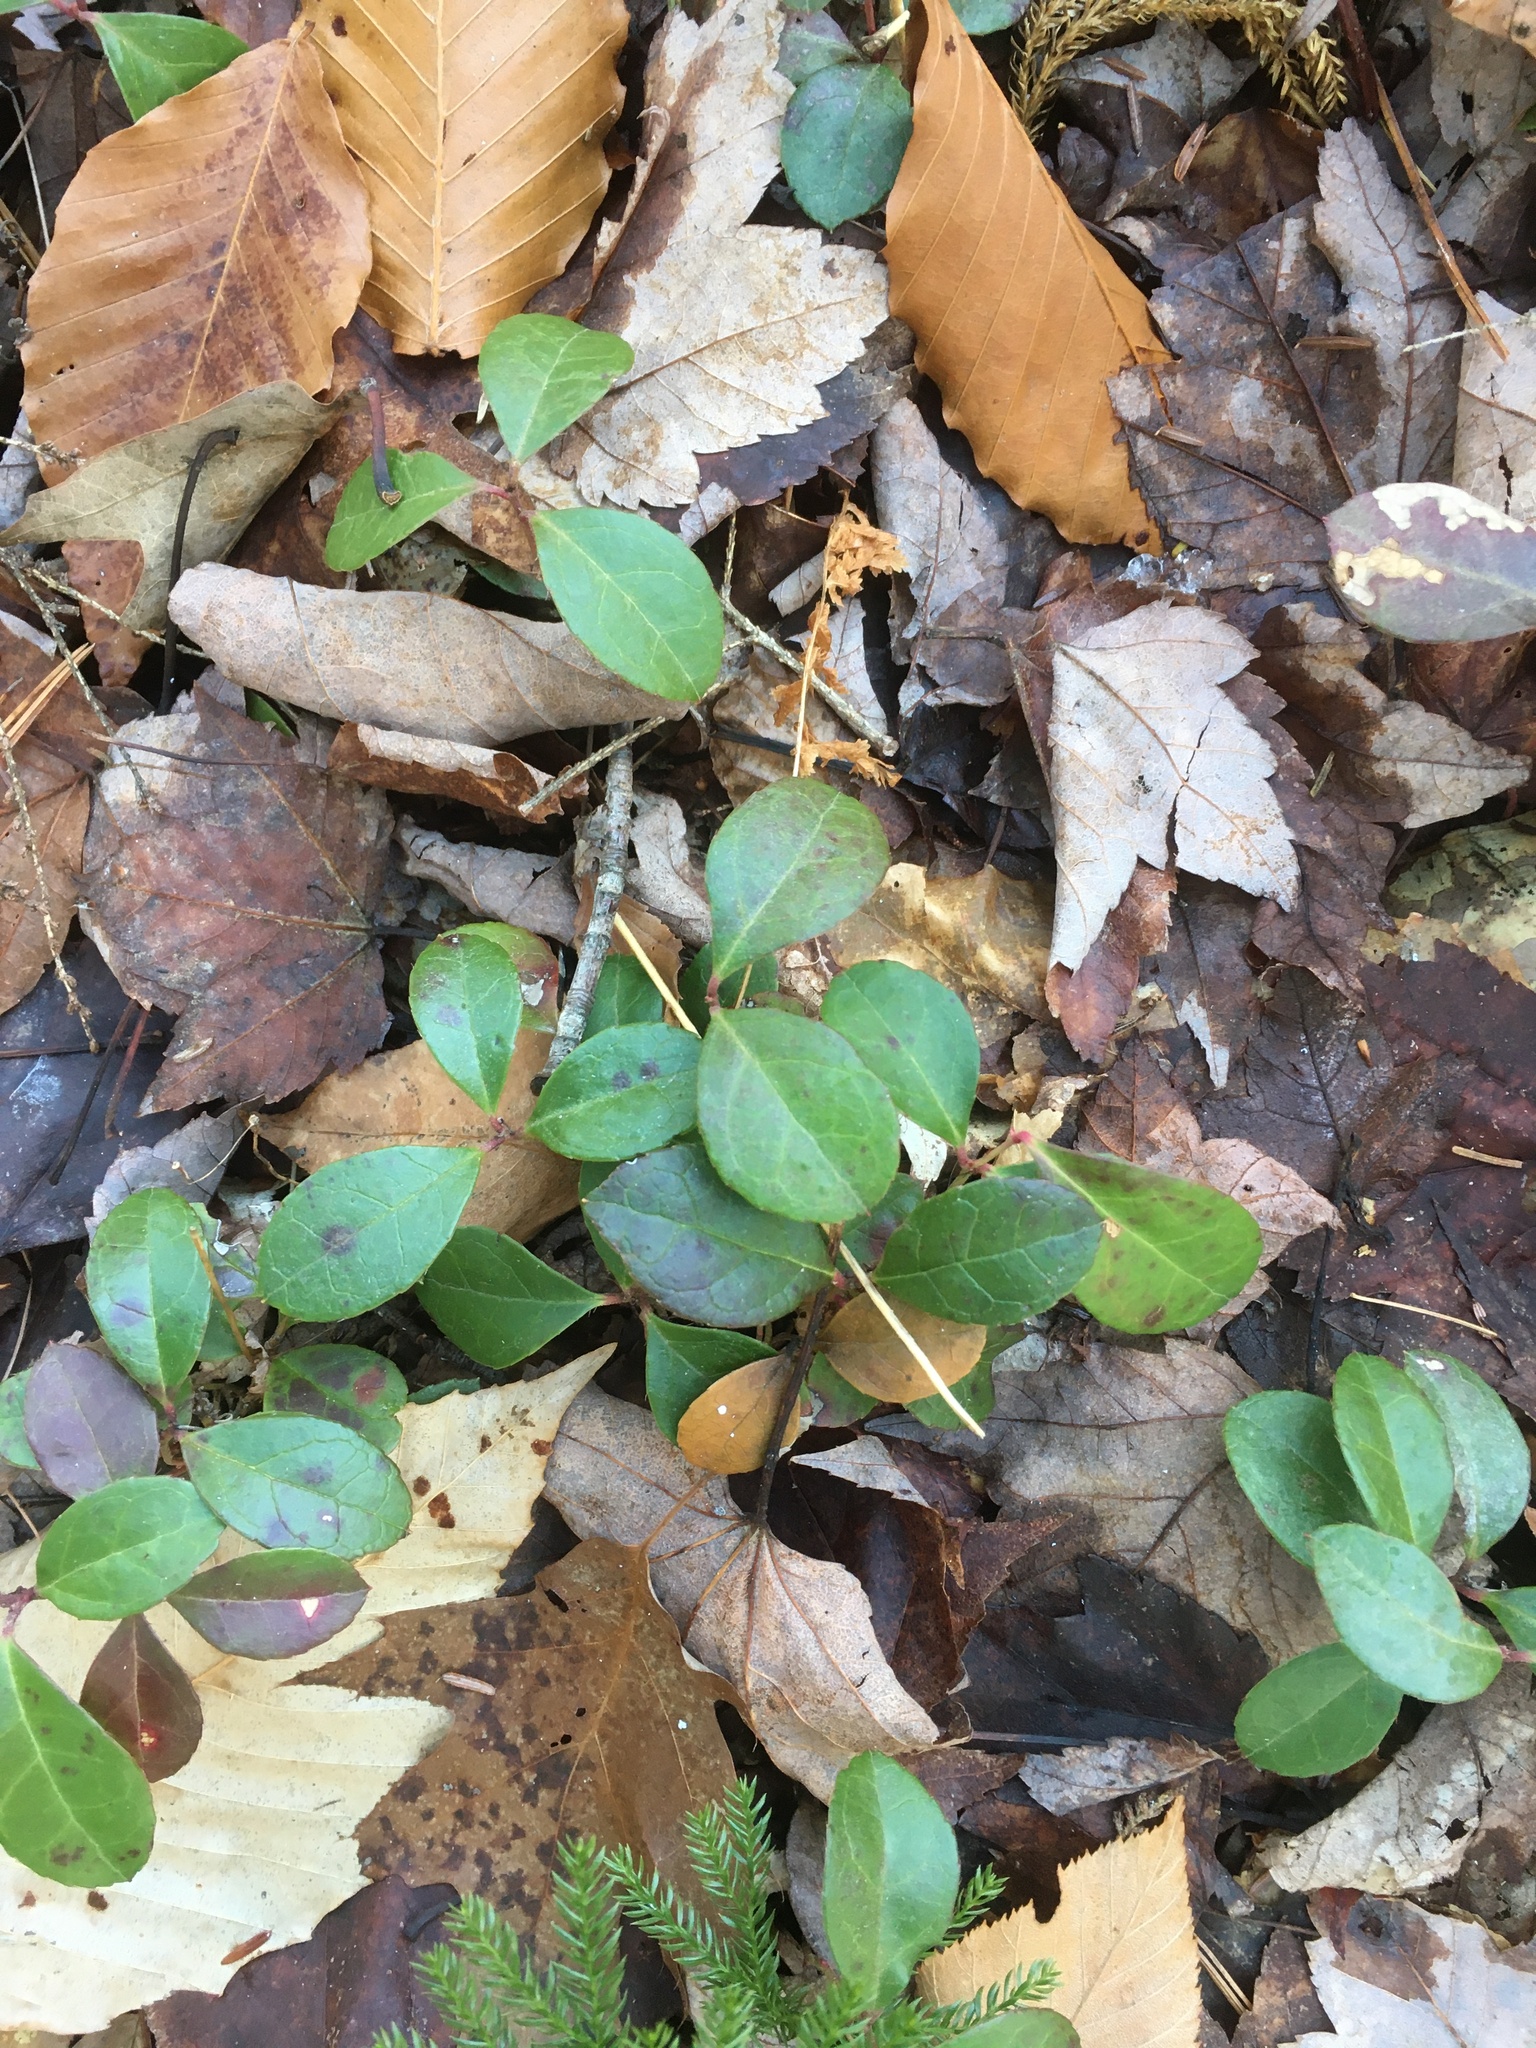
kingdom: Plantae
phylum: Tracheophyta
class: Magnoliopsida
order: Ericales
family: Ericaceae
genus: Gaultheria
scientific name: Gaultheria procumbens
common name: Checkerberry
